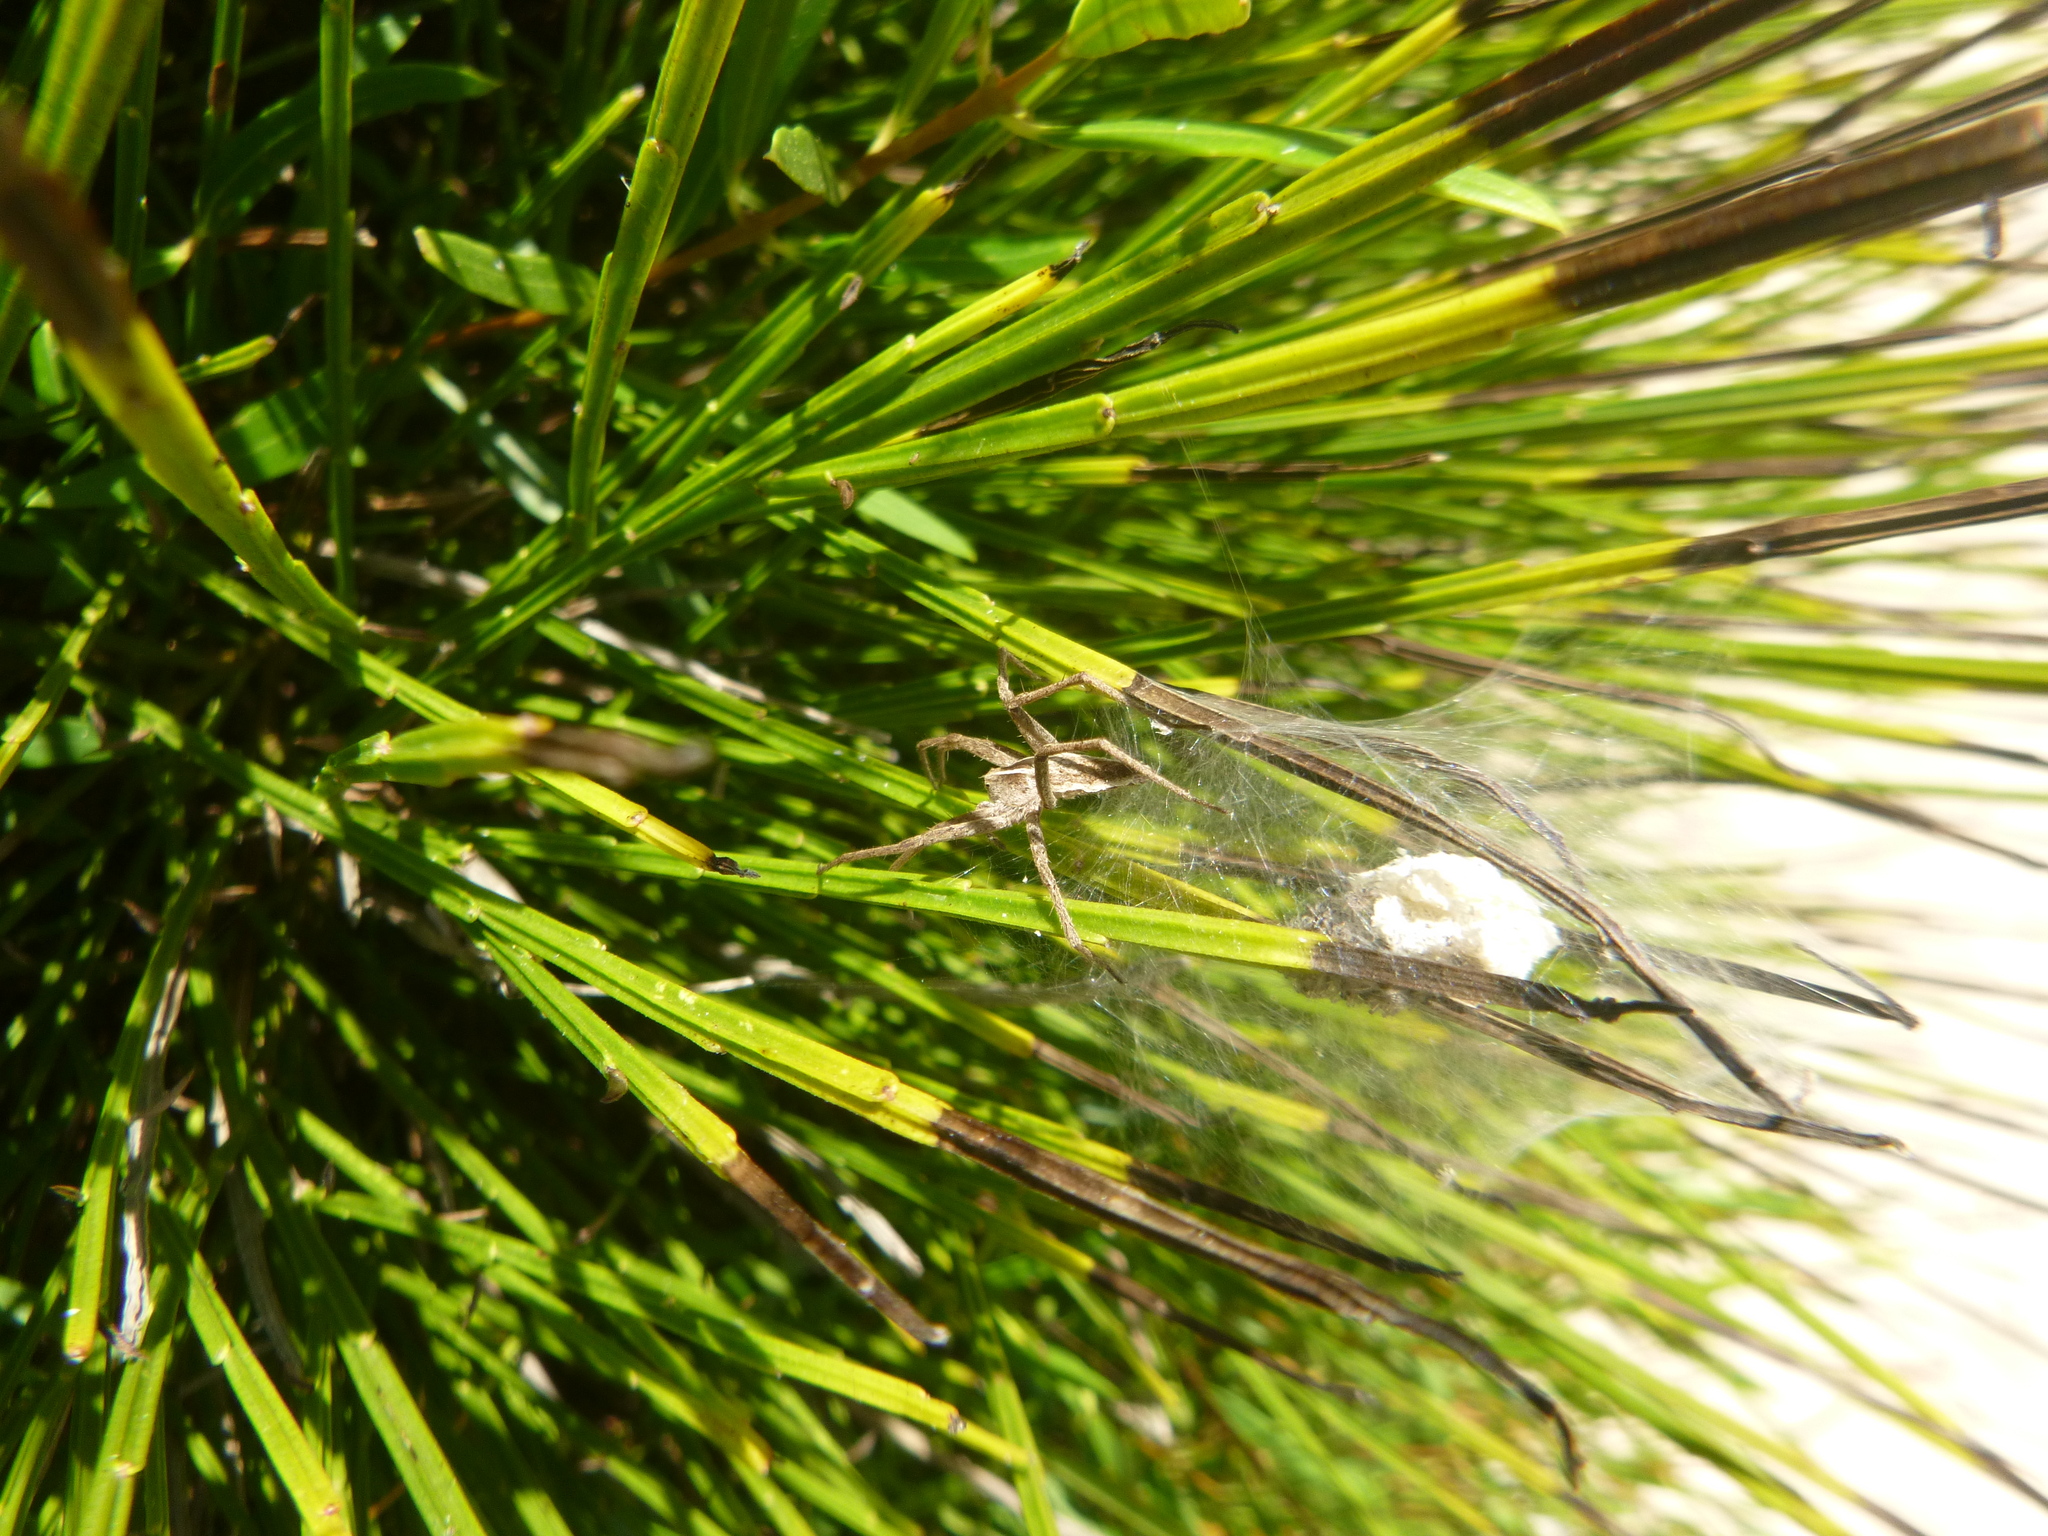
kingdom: Animalia
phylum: Arthropoda
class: Arachnida
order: Araneae
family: Pisauridae
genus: Pisaura
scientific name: Pisaura mirabilis
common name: Tent spider
